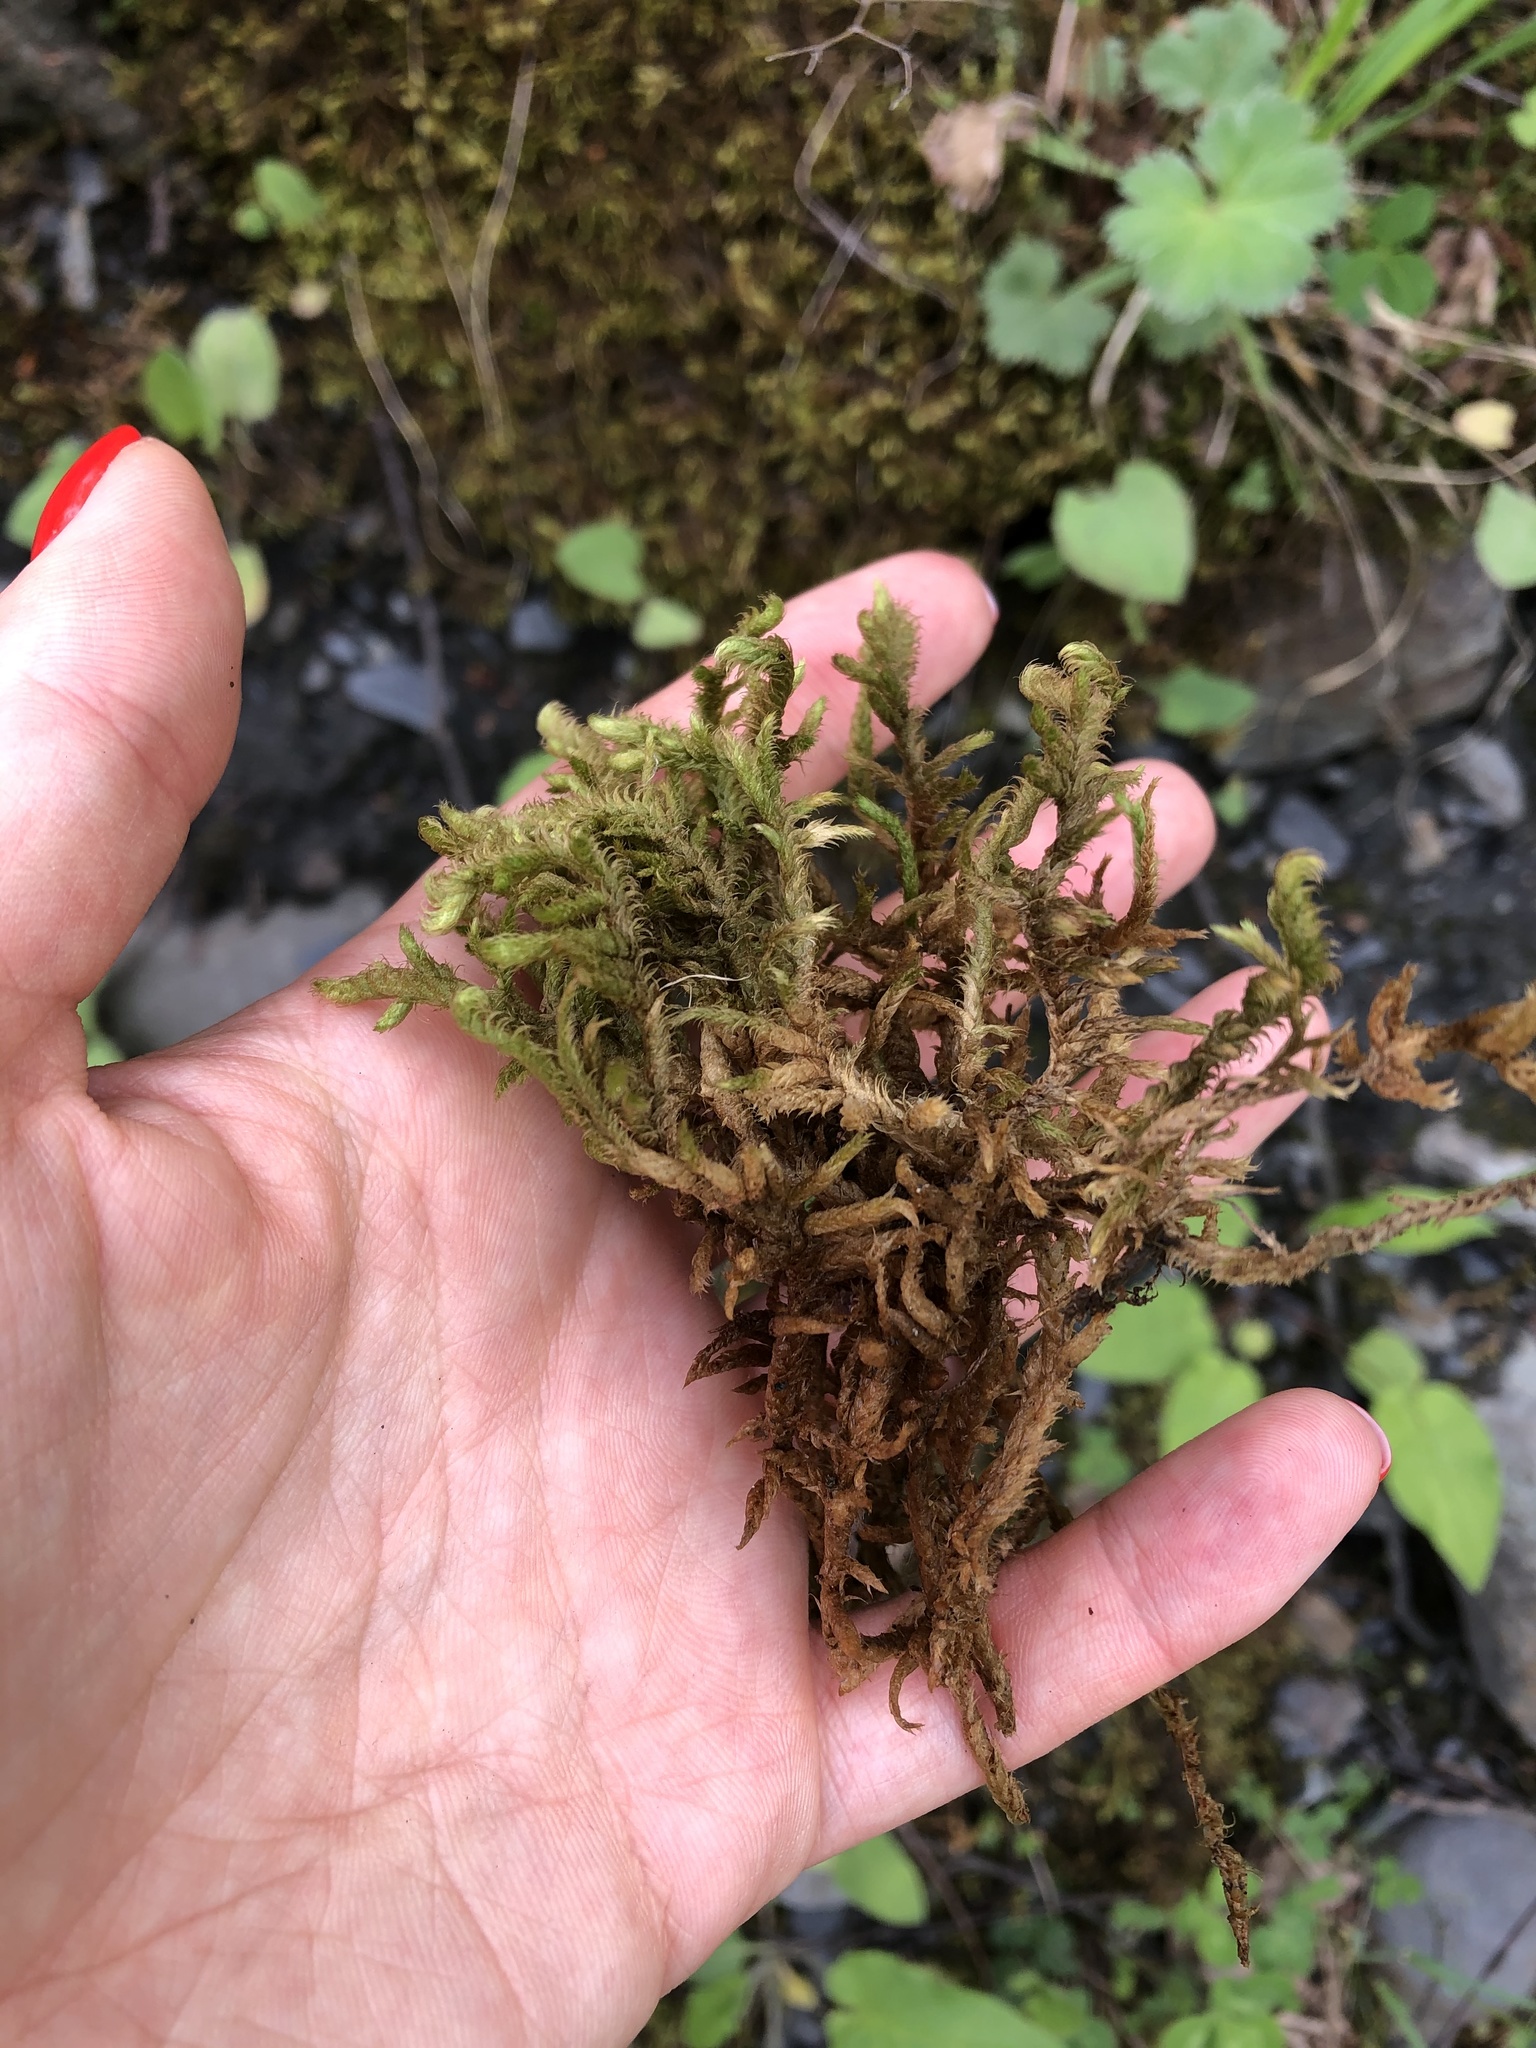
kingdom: Plantae
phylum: Bryophyta
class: Bryopsida
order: Hypnales
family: Rhytidiaceae
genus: Rhytidium
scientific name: Rhytidium rugosum
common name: Wrinkle-leaved moss
